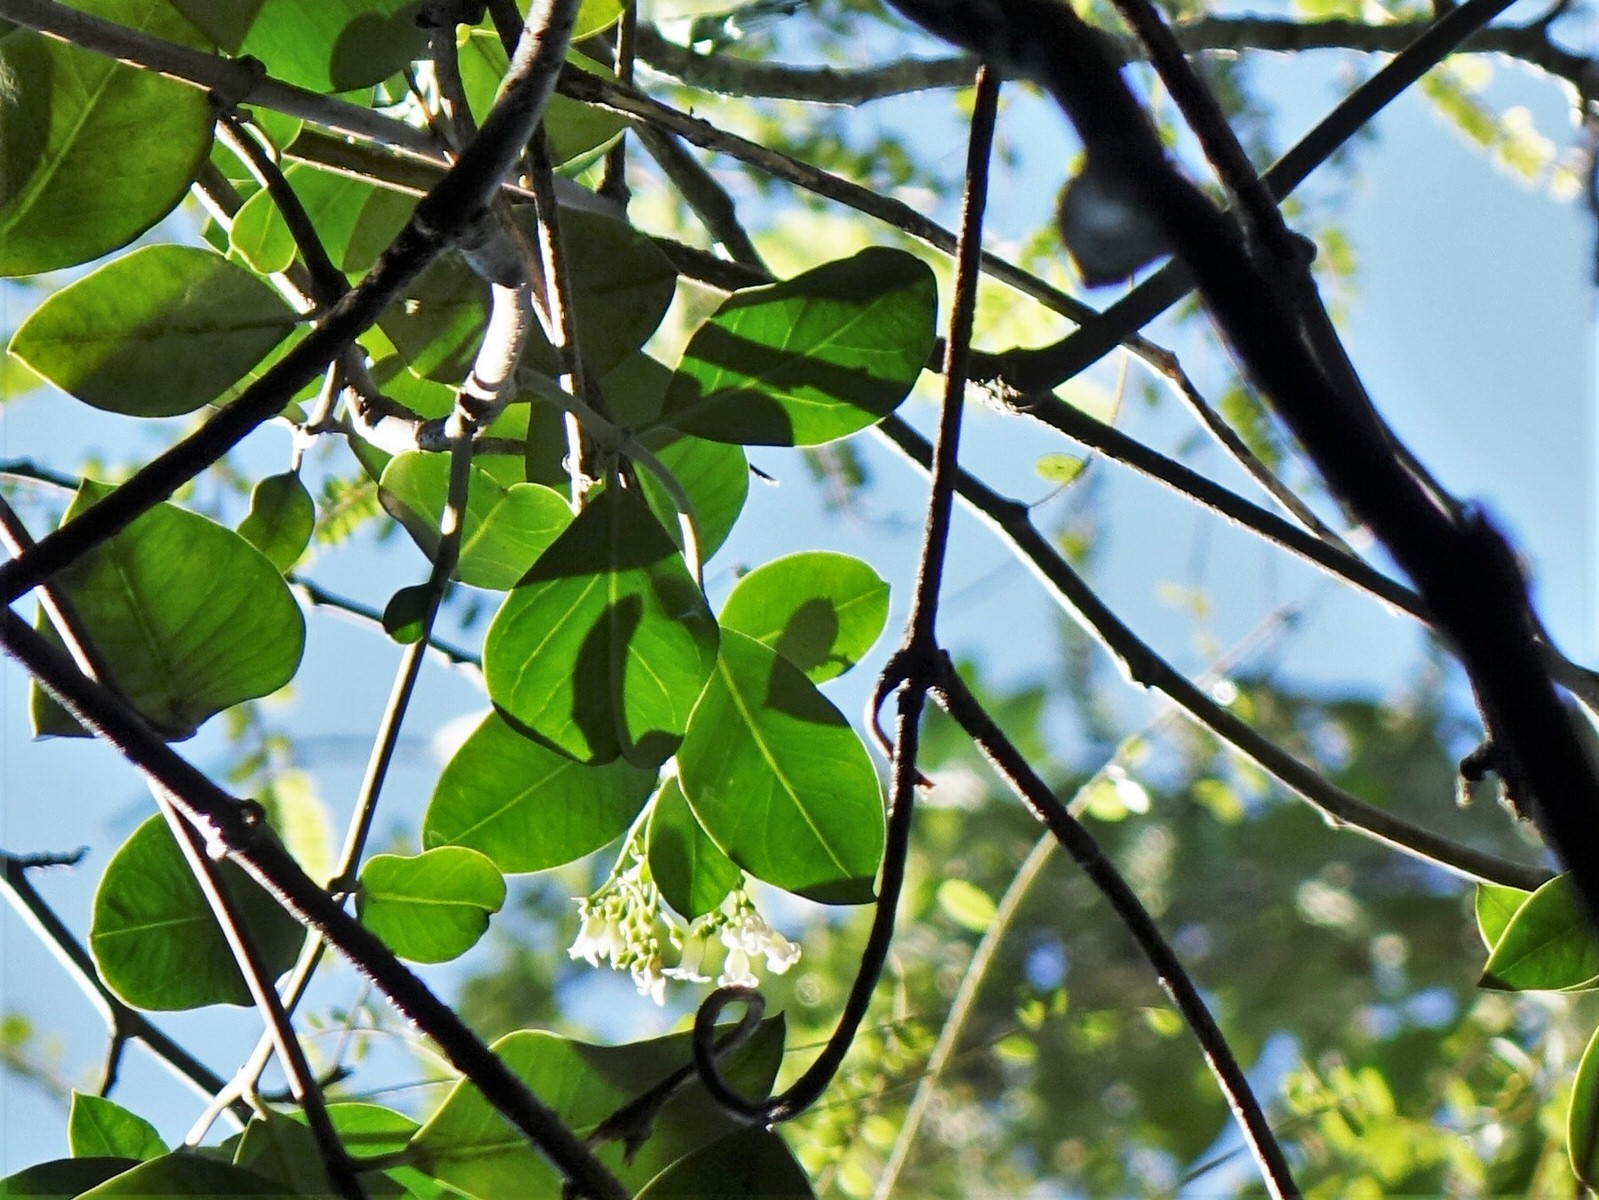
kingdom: Plantae
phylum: Tracheophyta
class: Magnoliopsida
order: Gentianales
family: Apocynaceae
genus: Parsonsia
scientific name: Parsonsia heterophylla
